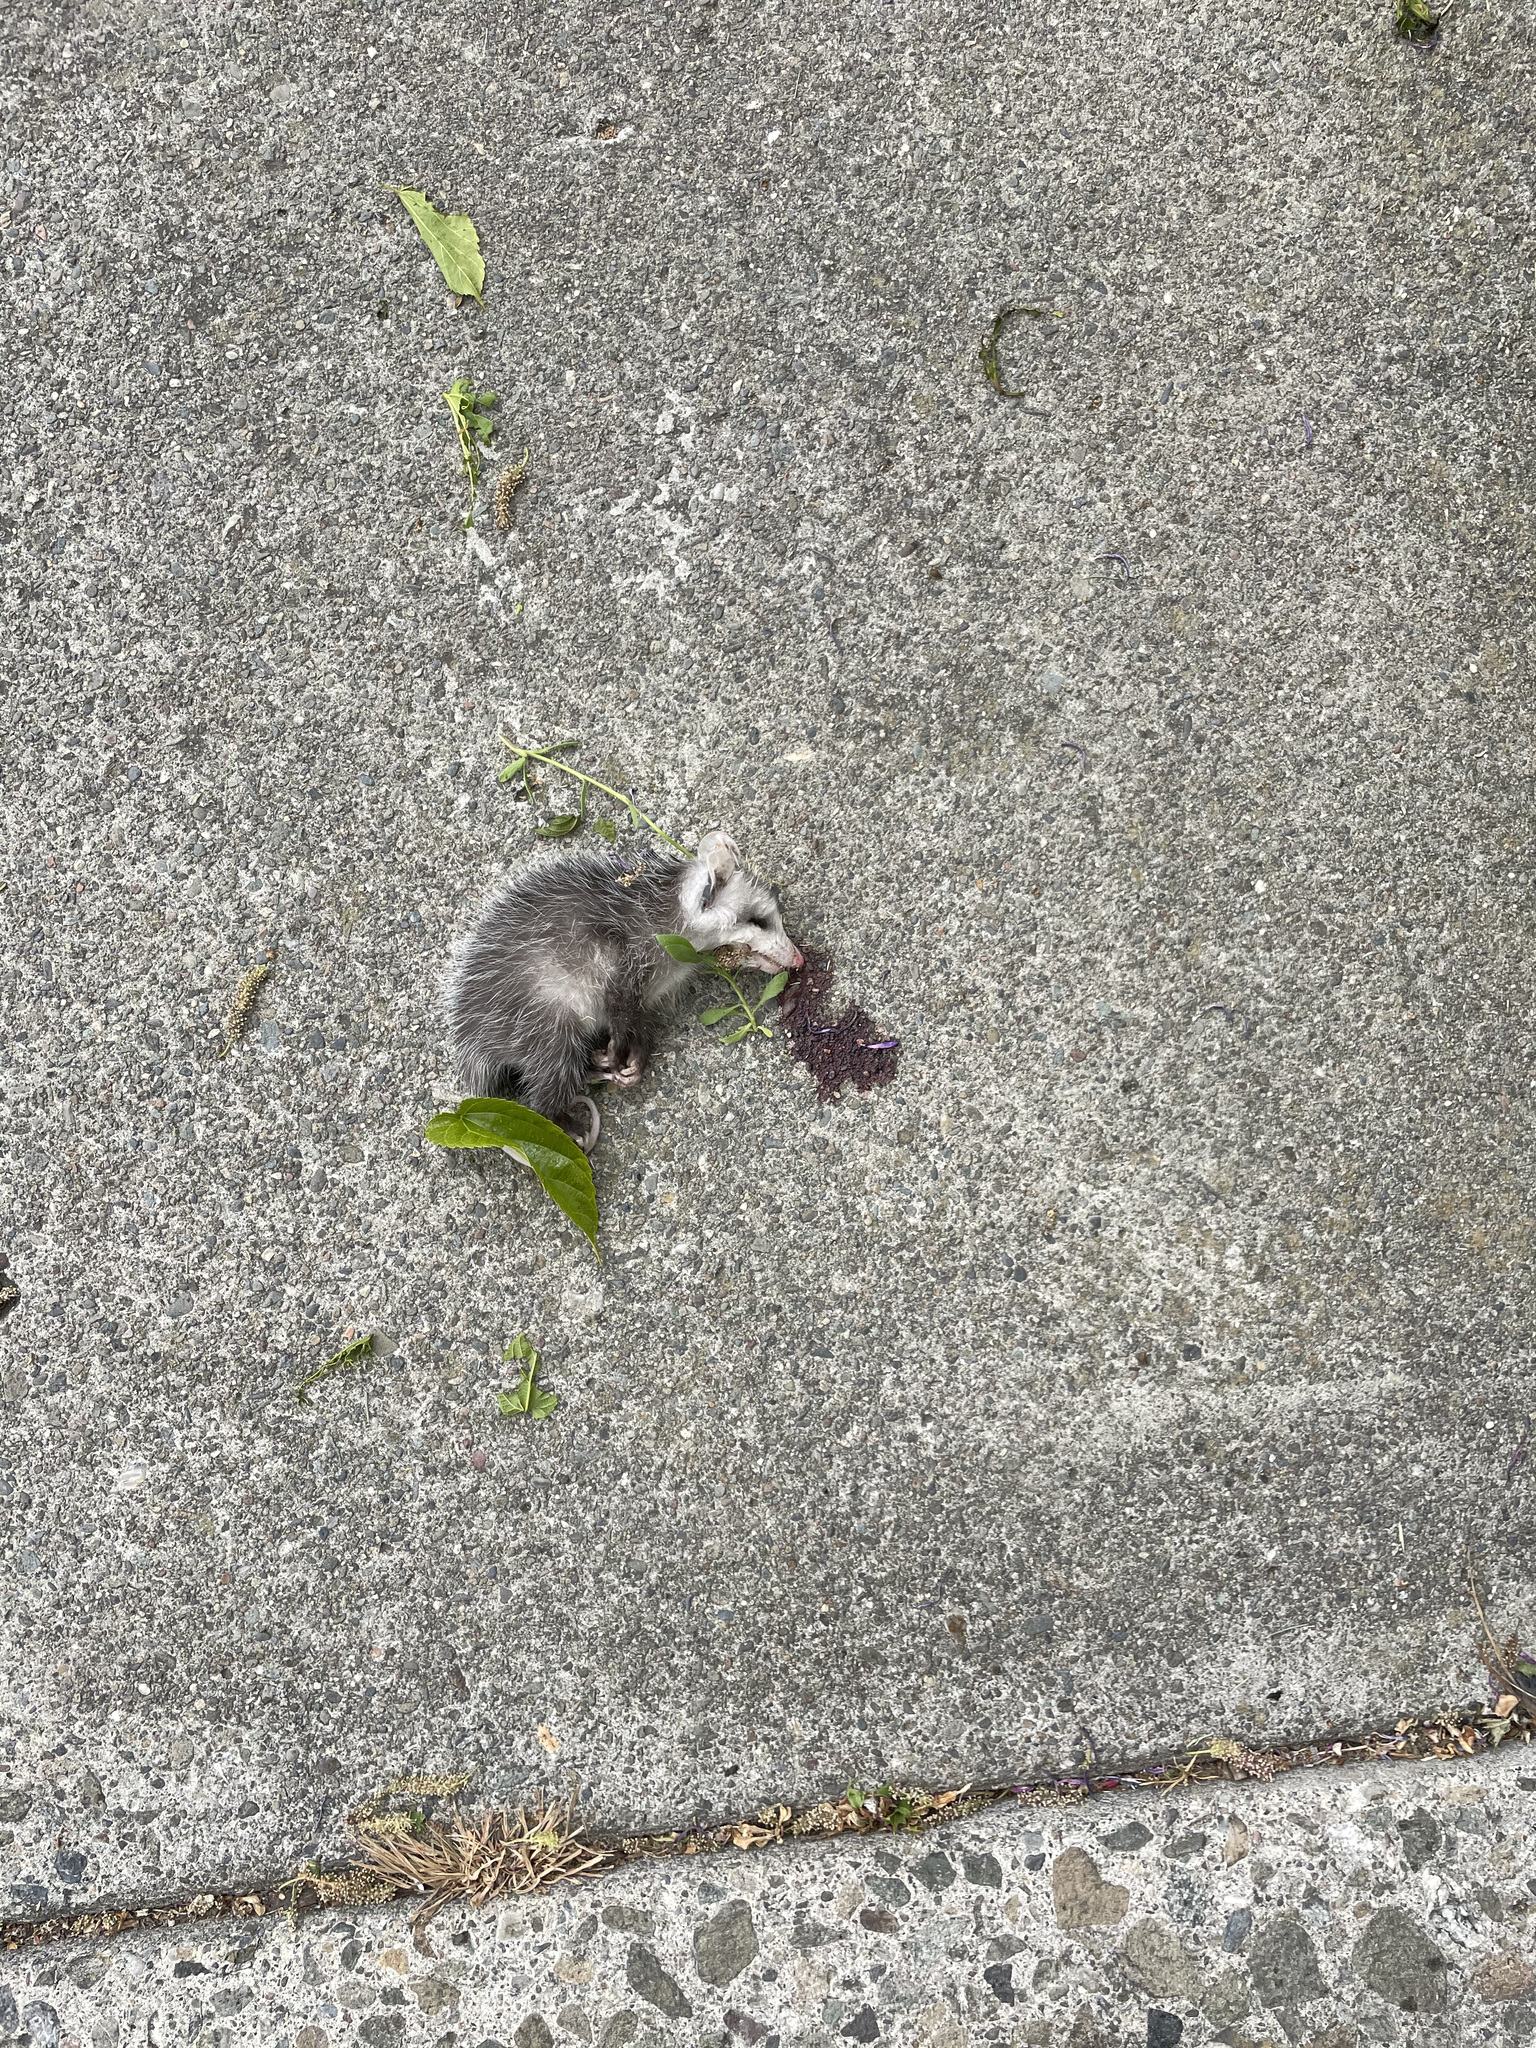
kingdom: Animalia
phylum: Chordata
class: Mammalia
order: Didelphimorphia
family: Didelphidae
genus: Didelphis
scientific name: Didelphis virginiana
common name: Virginia opossum
